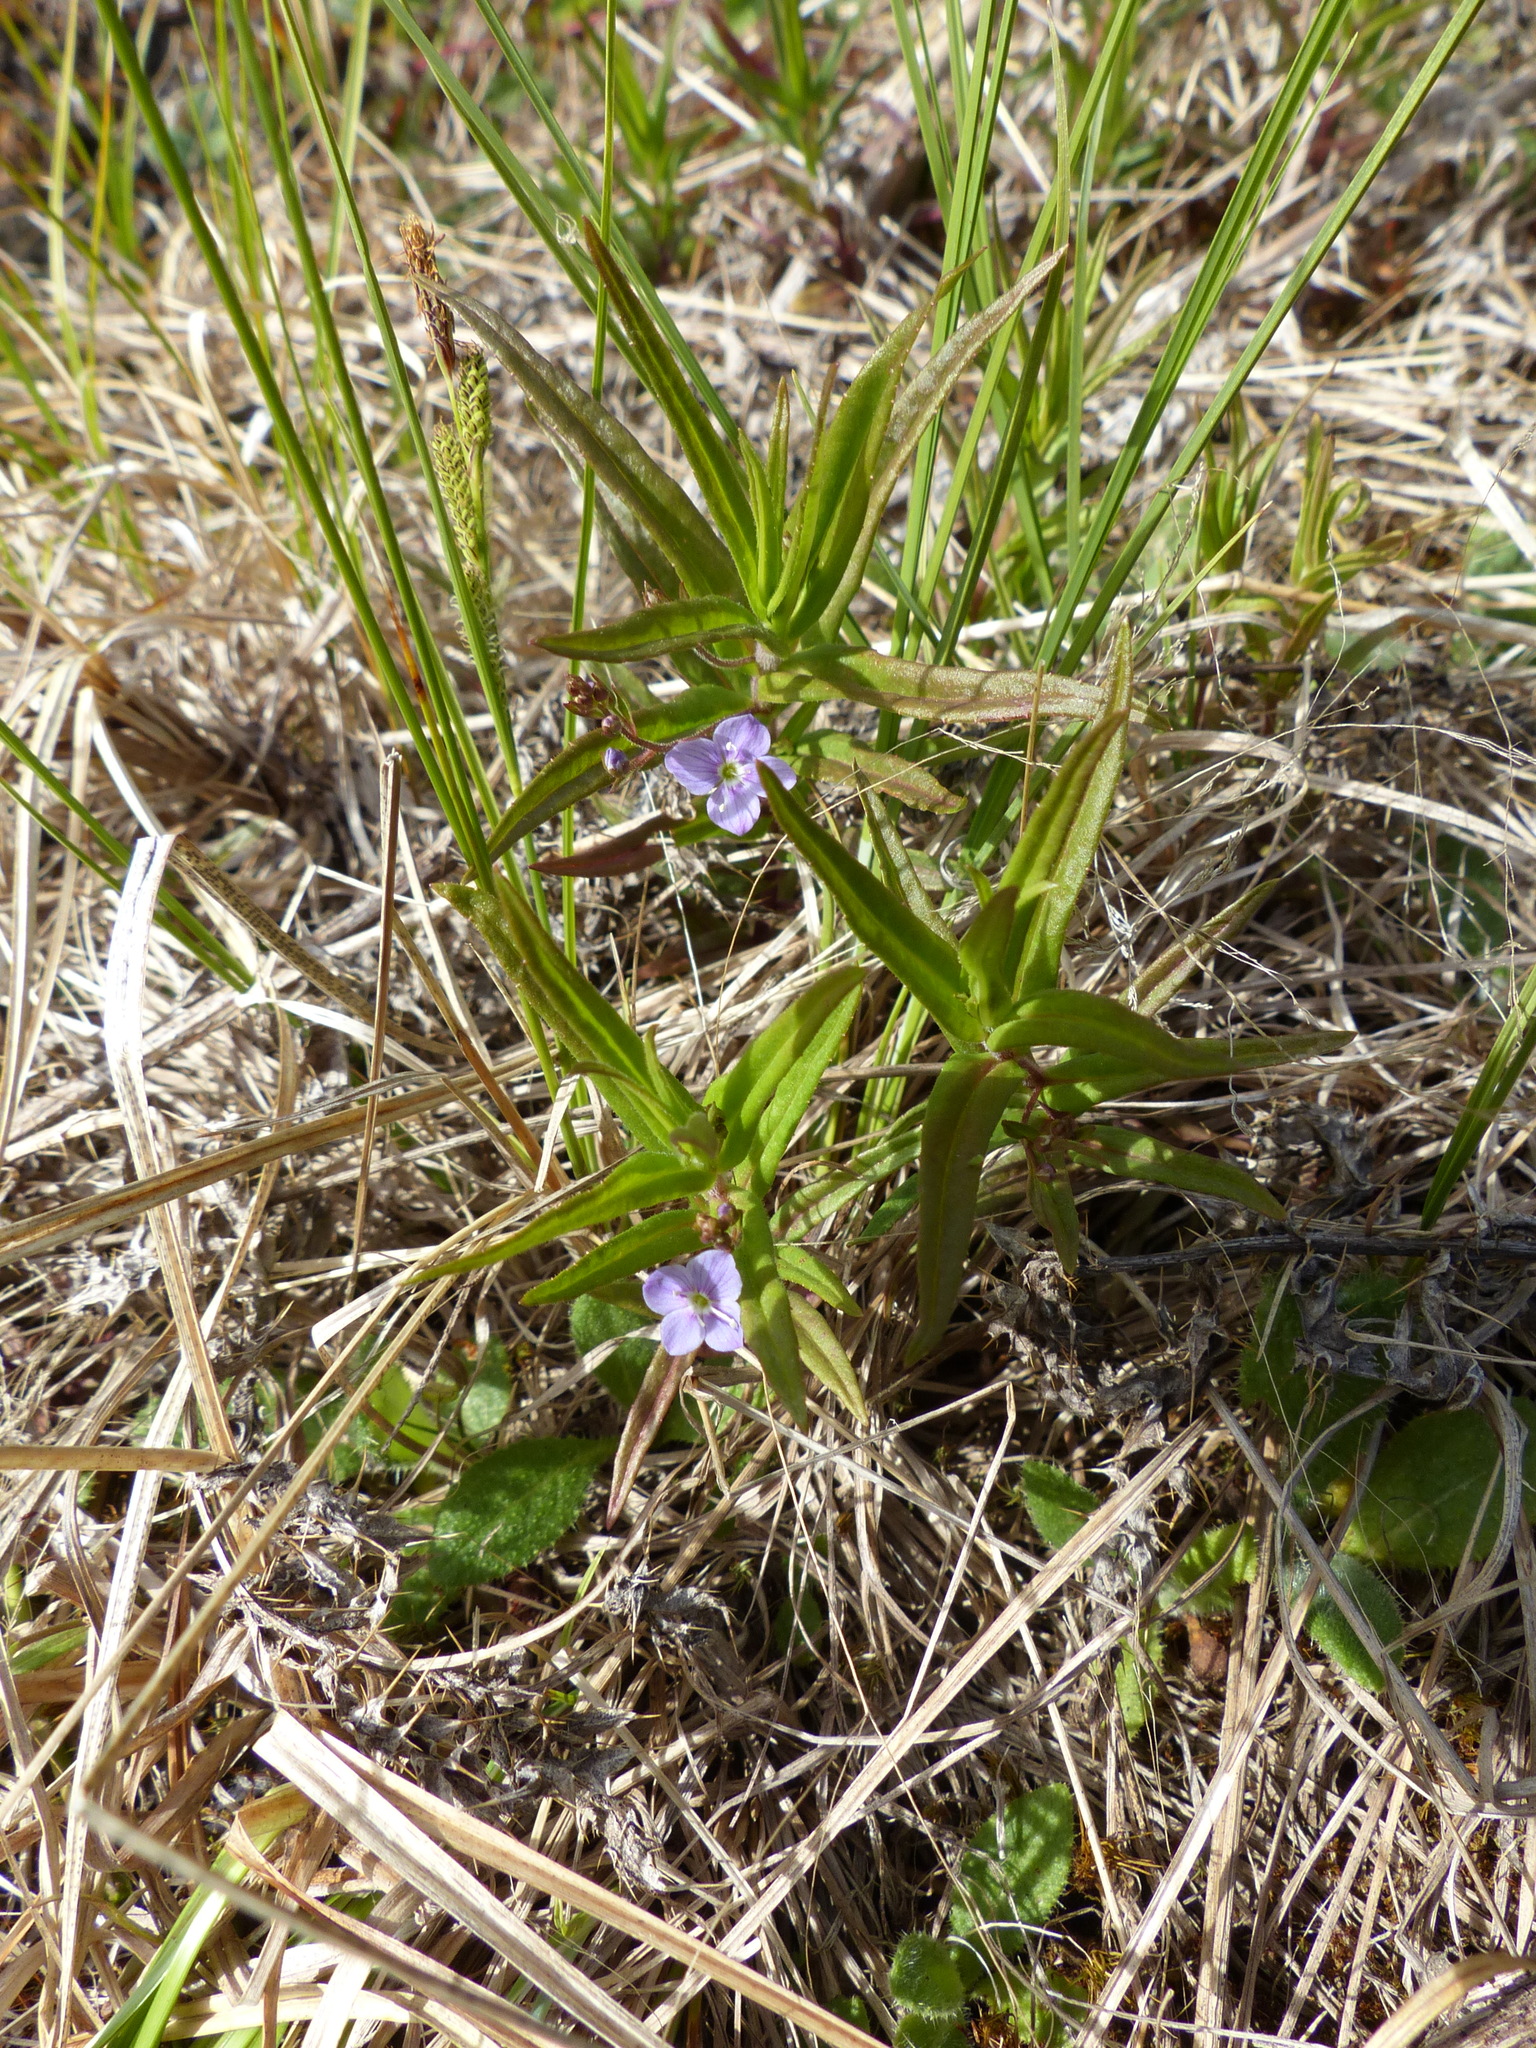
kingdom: Plantae
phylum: Tracheophyta
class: Magnoliopsida
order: Lamiales
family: Plantaginaceae
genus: Veronica
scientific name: Veronica scutellata
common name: Marsh speedwell
